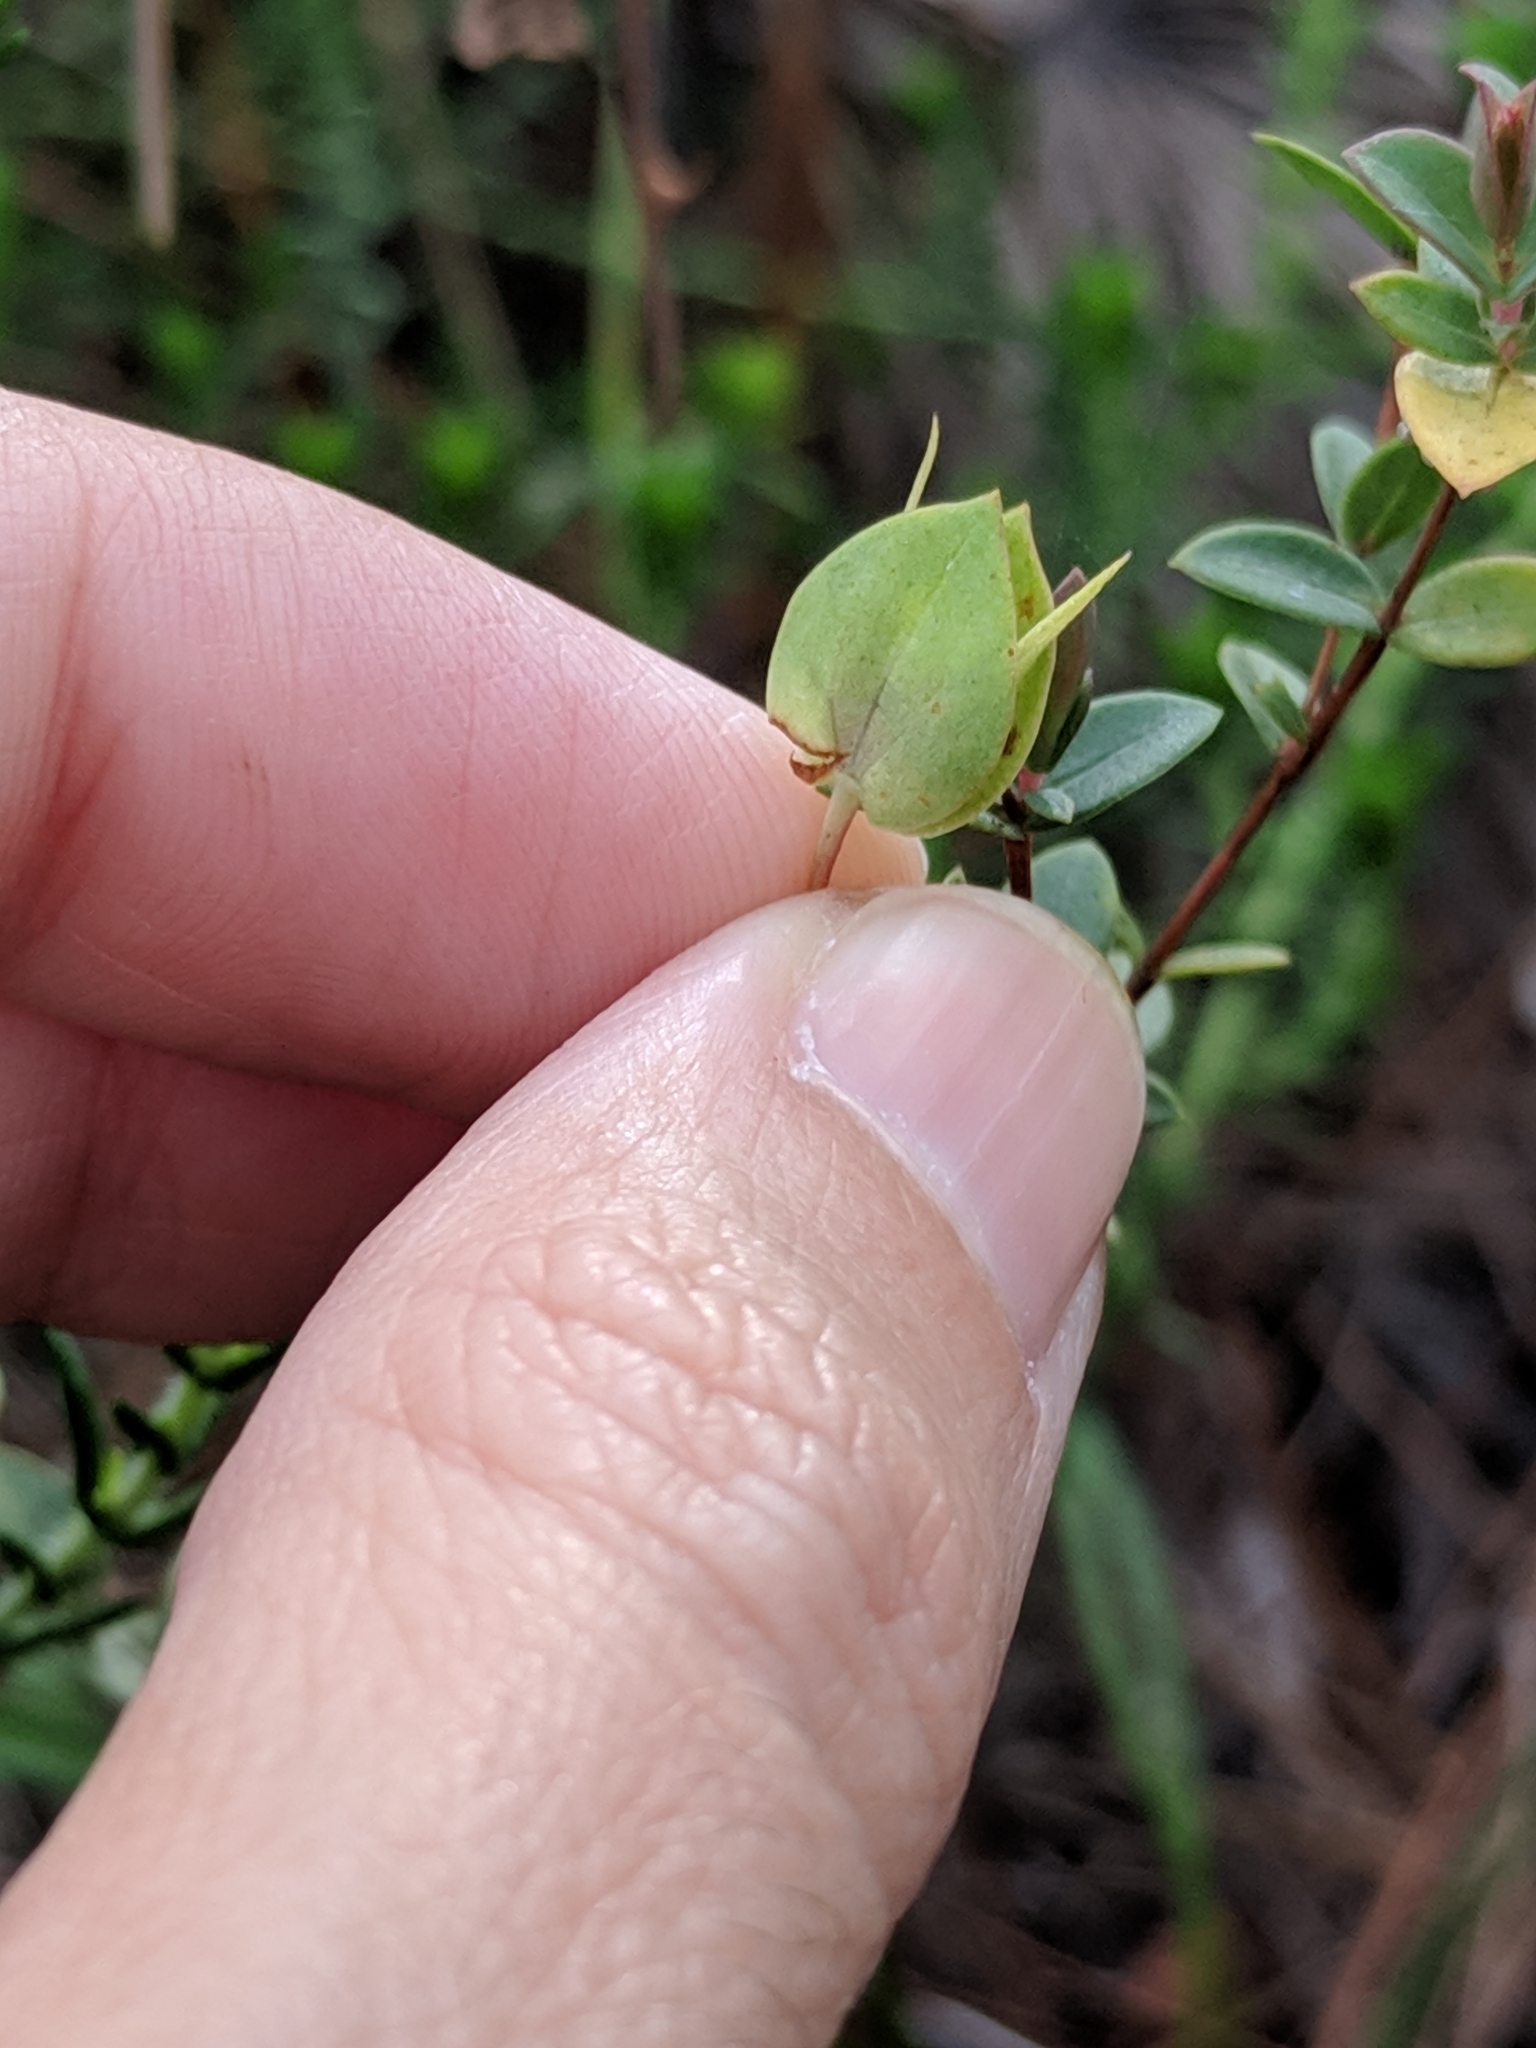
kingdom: Plantae
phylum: Tracheophyta
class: Magnoliopsida
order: Malpighiales
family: Hypericaceae
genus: Hypericum
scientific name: Hypericum tetrapetalum
